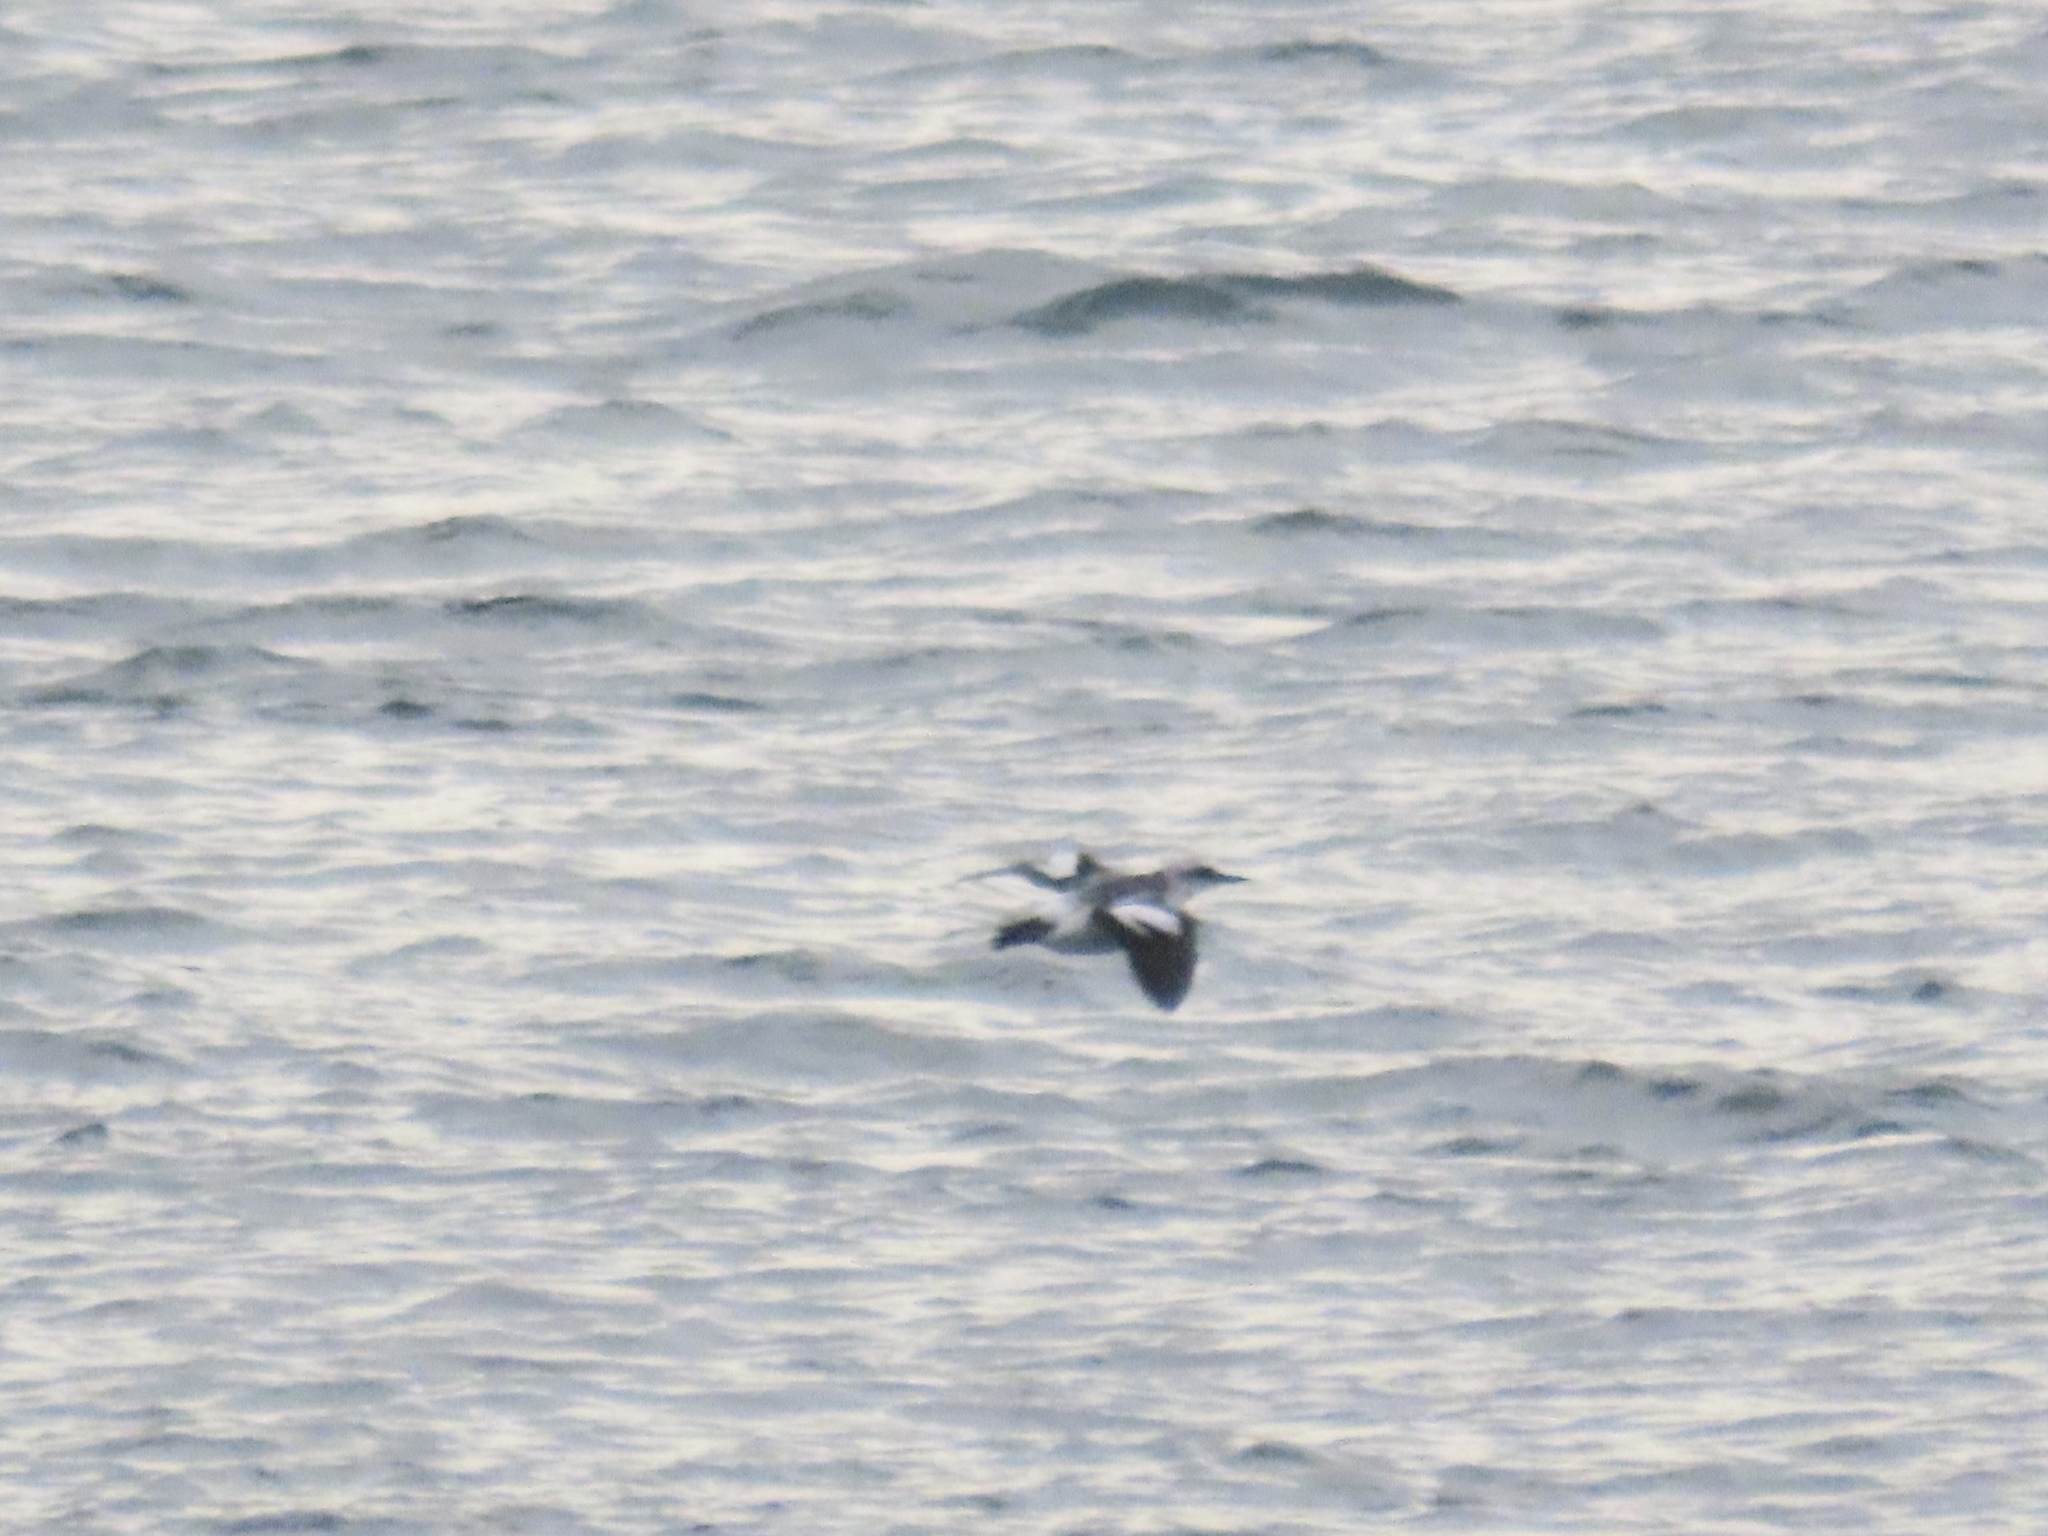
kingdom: Animalia
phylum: Chordata
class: Aves
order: Charadriiformes
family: Alcidae
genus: Cepphus
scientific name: Cepphus columba
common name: Pigeon guillemot
